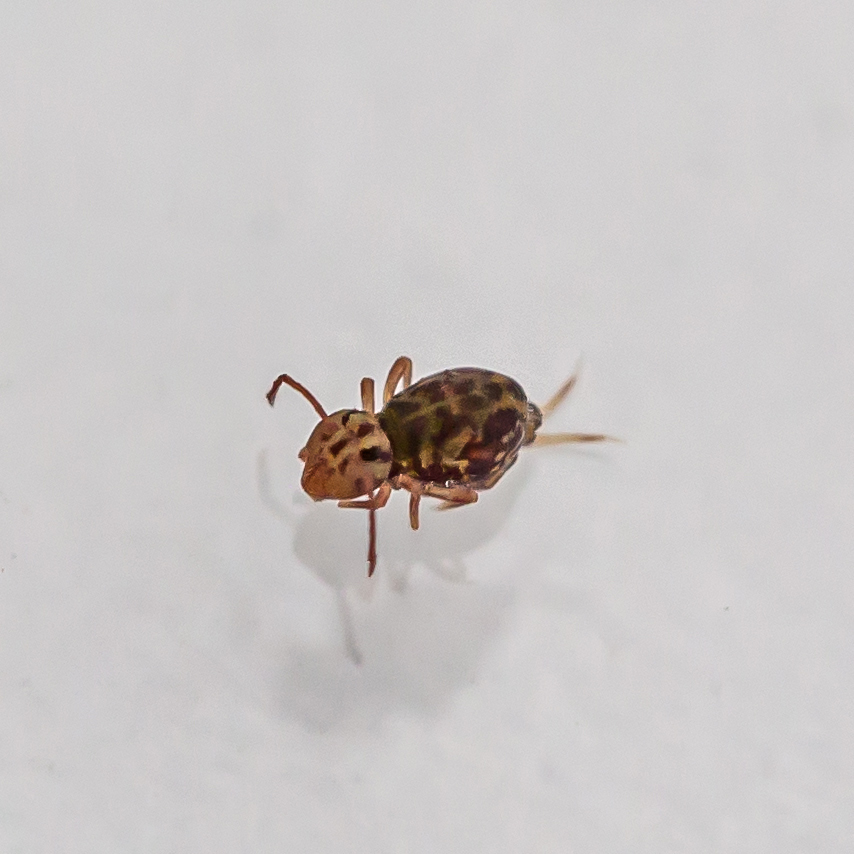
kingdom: Animalia
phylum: Arthropoda
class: Collembola
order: Symphypleona
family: Dicyrtomidae
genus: Dicyrtomina
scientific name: Dicyrtomina minuta
